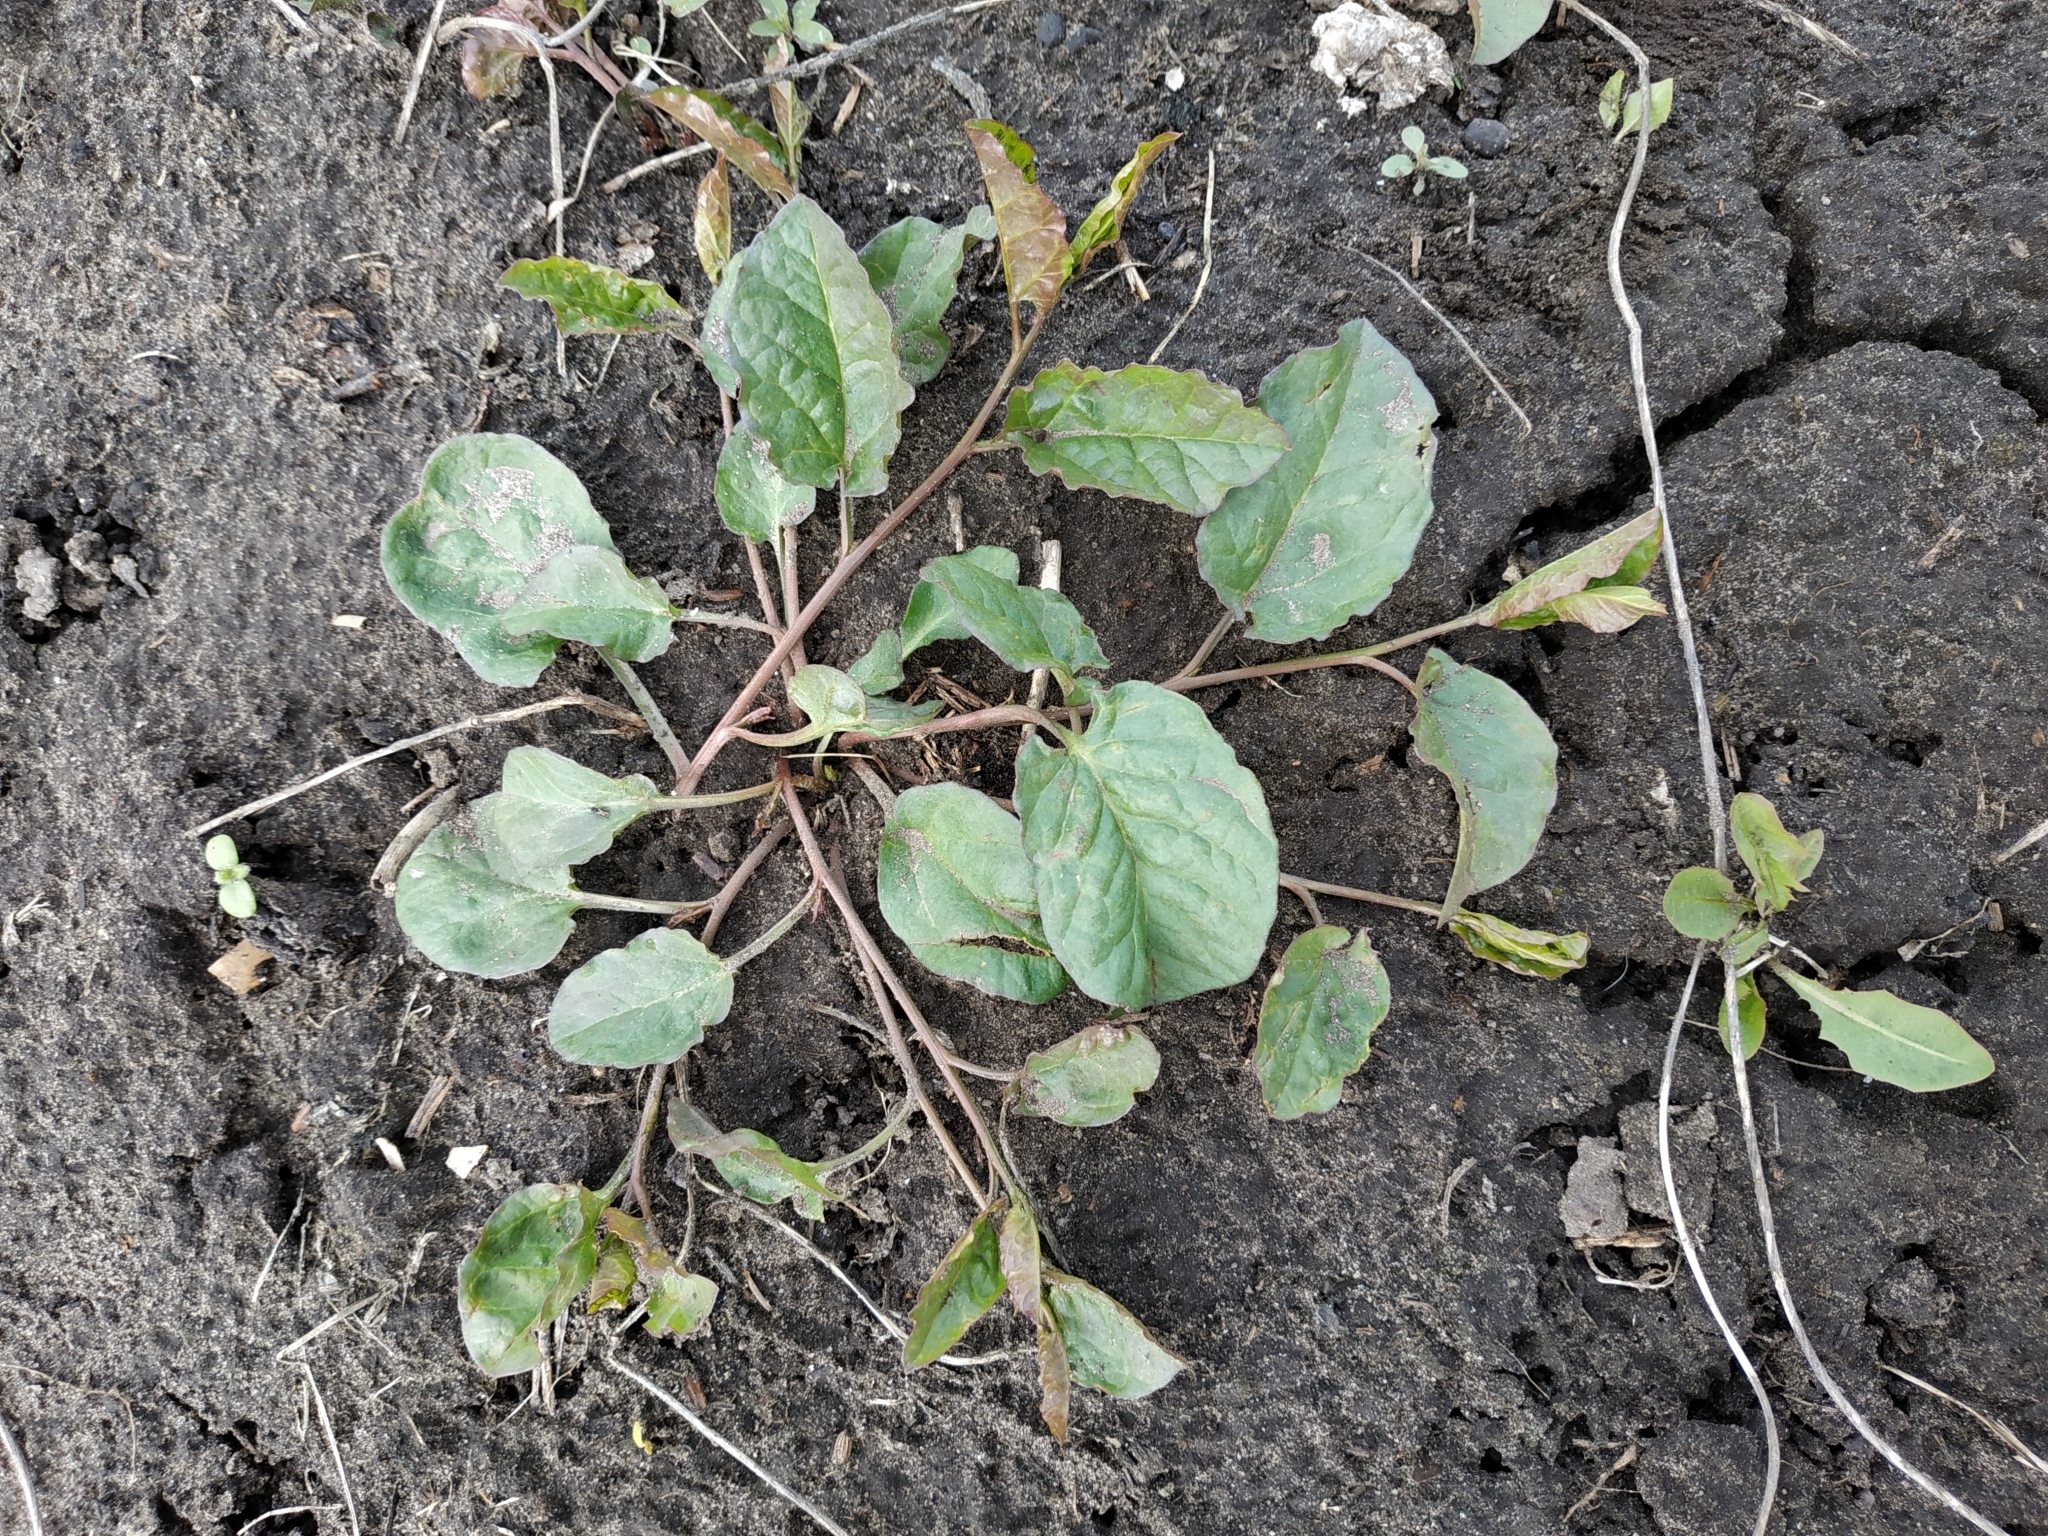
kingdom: Plantae
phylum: Tracheophyta
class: Magnoliopsida
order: Solanales
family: Convolvulaceae
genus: Convolvulus
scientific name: Convolvulus arvensis
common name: Field bindweed
